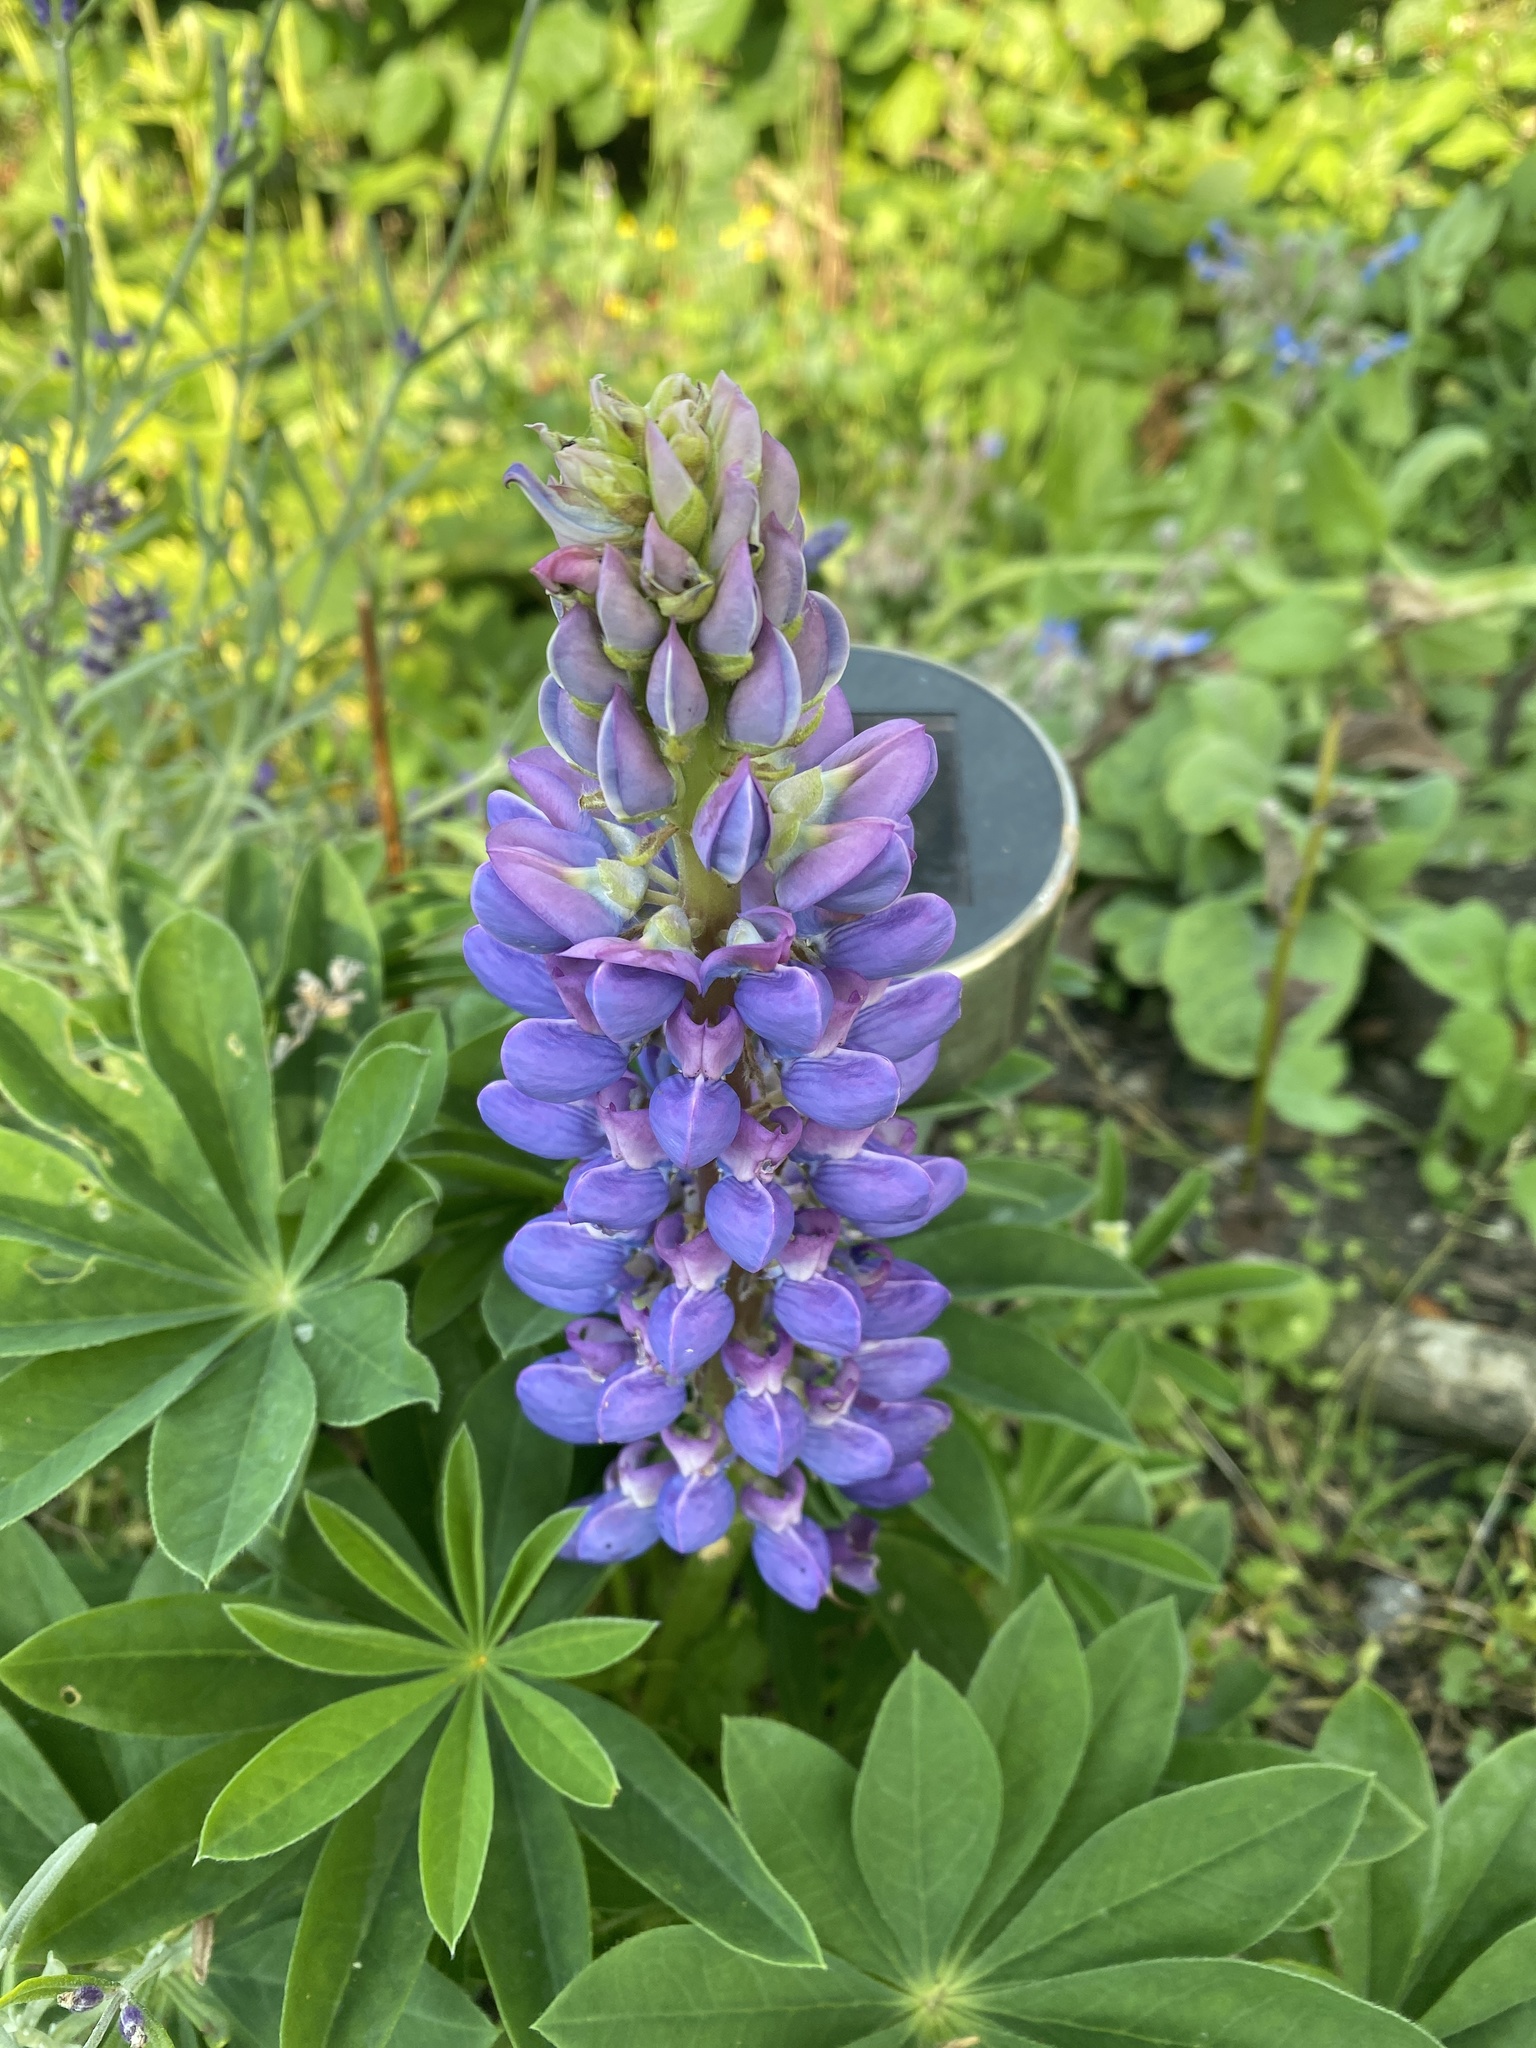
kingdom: Plantae
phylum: Tracheophyta
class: Magnoliopsida
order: Fabales
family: Fabaceae
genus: Lupinus
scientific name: Lupinus regalis
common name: Russell lupin
